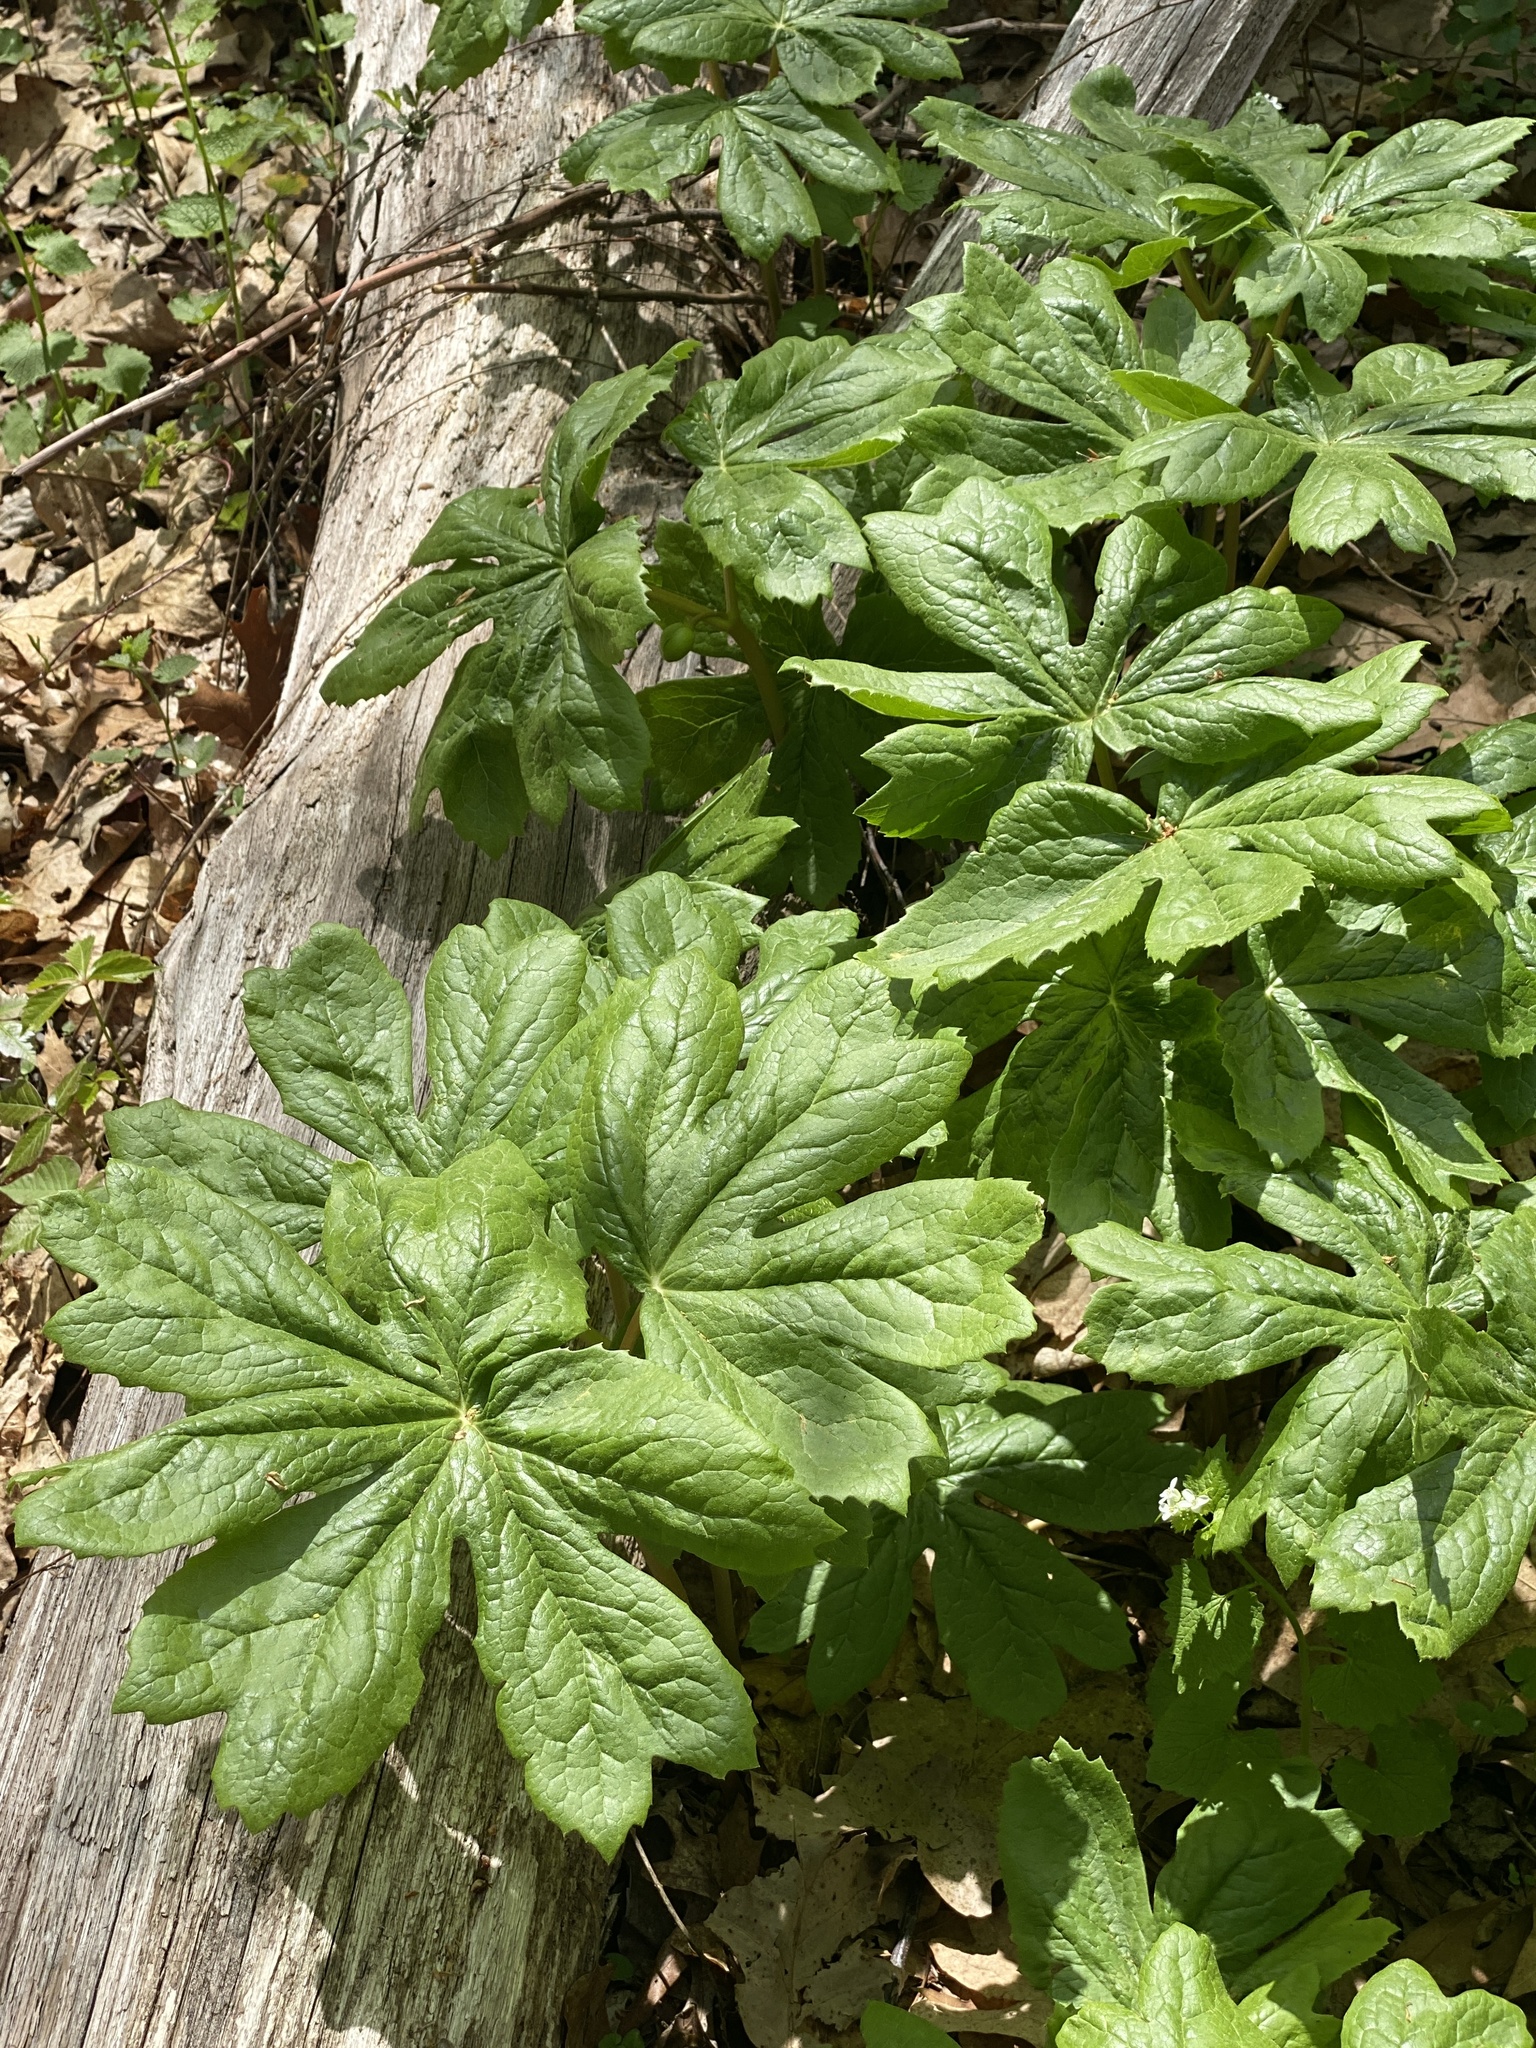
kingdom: Plantae
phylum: Tracheophyta
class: Magnoliopsida
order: Ranunculales
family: Berberidaceae
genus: Podophyllum
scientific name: Podophyllum peltatum
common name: Wild mandrake
